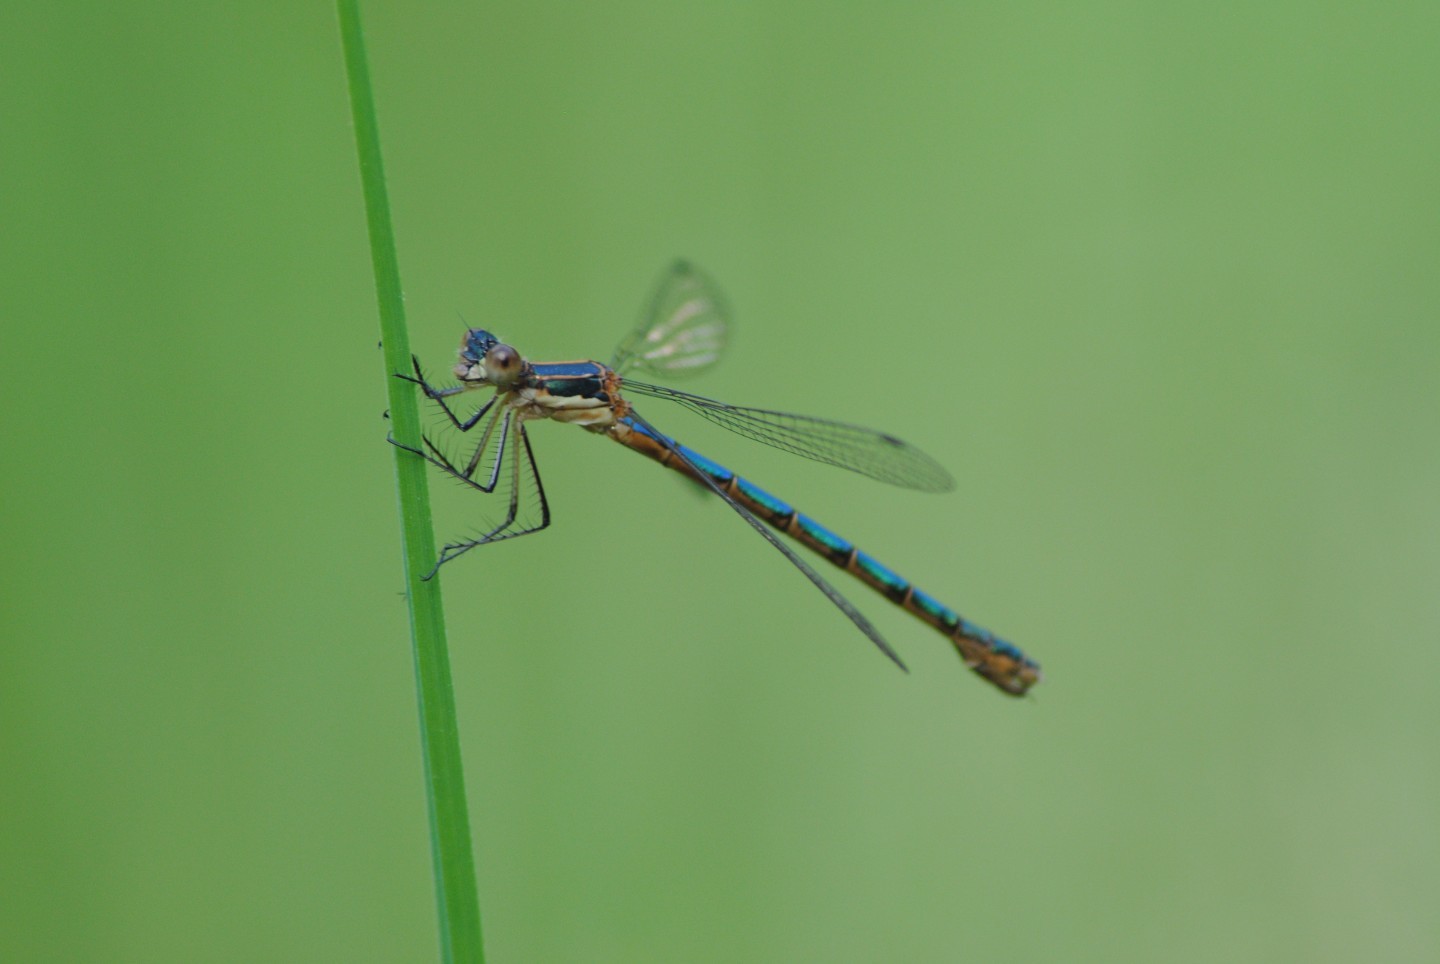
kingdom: Animalia
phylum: Arthropoda
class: Insecta
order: Odonata
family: Lestidae
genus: Lestes
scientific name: Lestes dryas
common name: Scarce emerald damselfly
